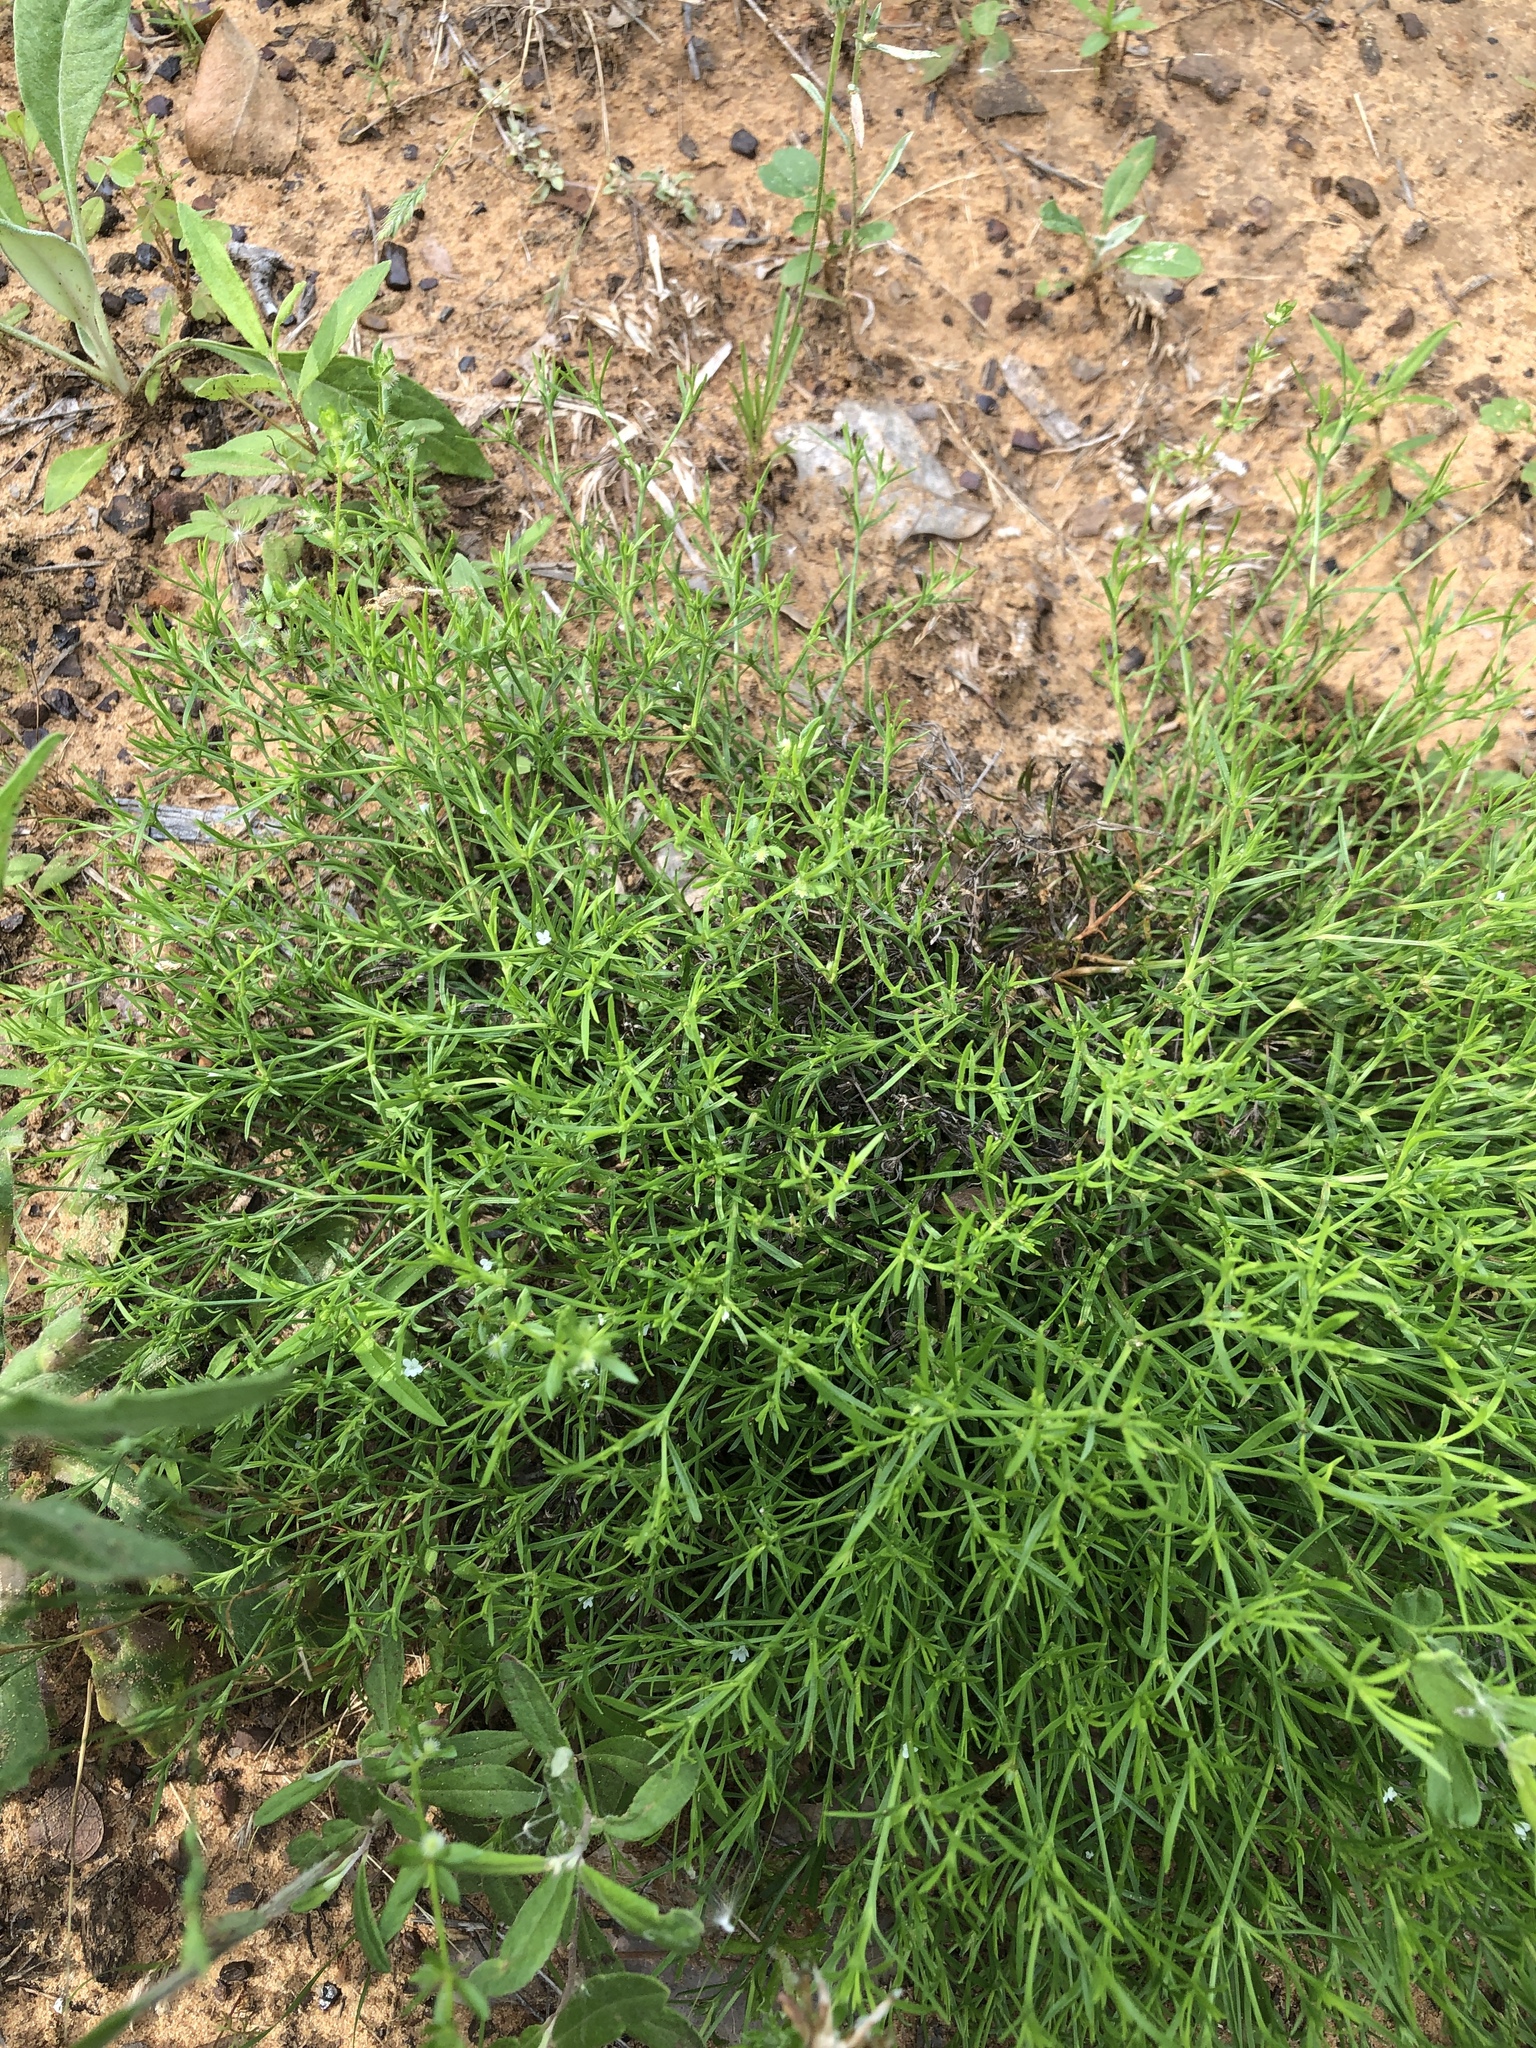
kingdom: Plantae
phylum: Tracheophyta
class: Magnoliopsida
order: Lamiales
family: Tetrachondraceae
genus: Polypremum
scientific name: Polypremum procumbens
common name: Juniper-leaf
